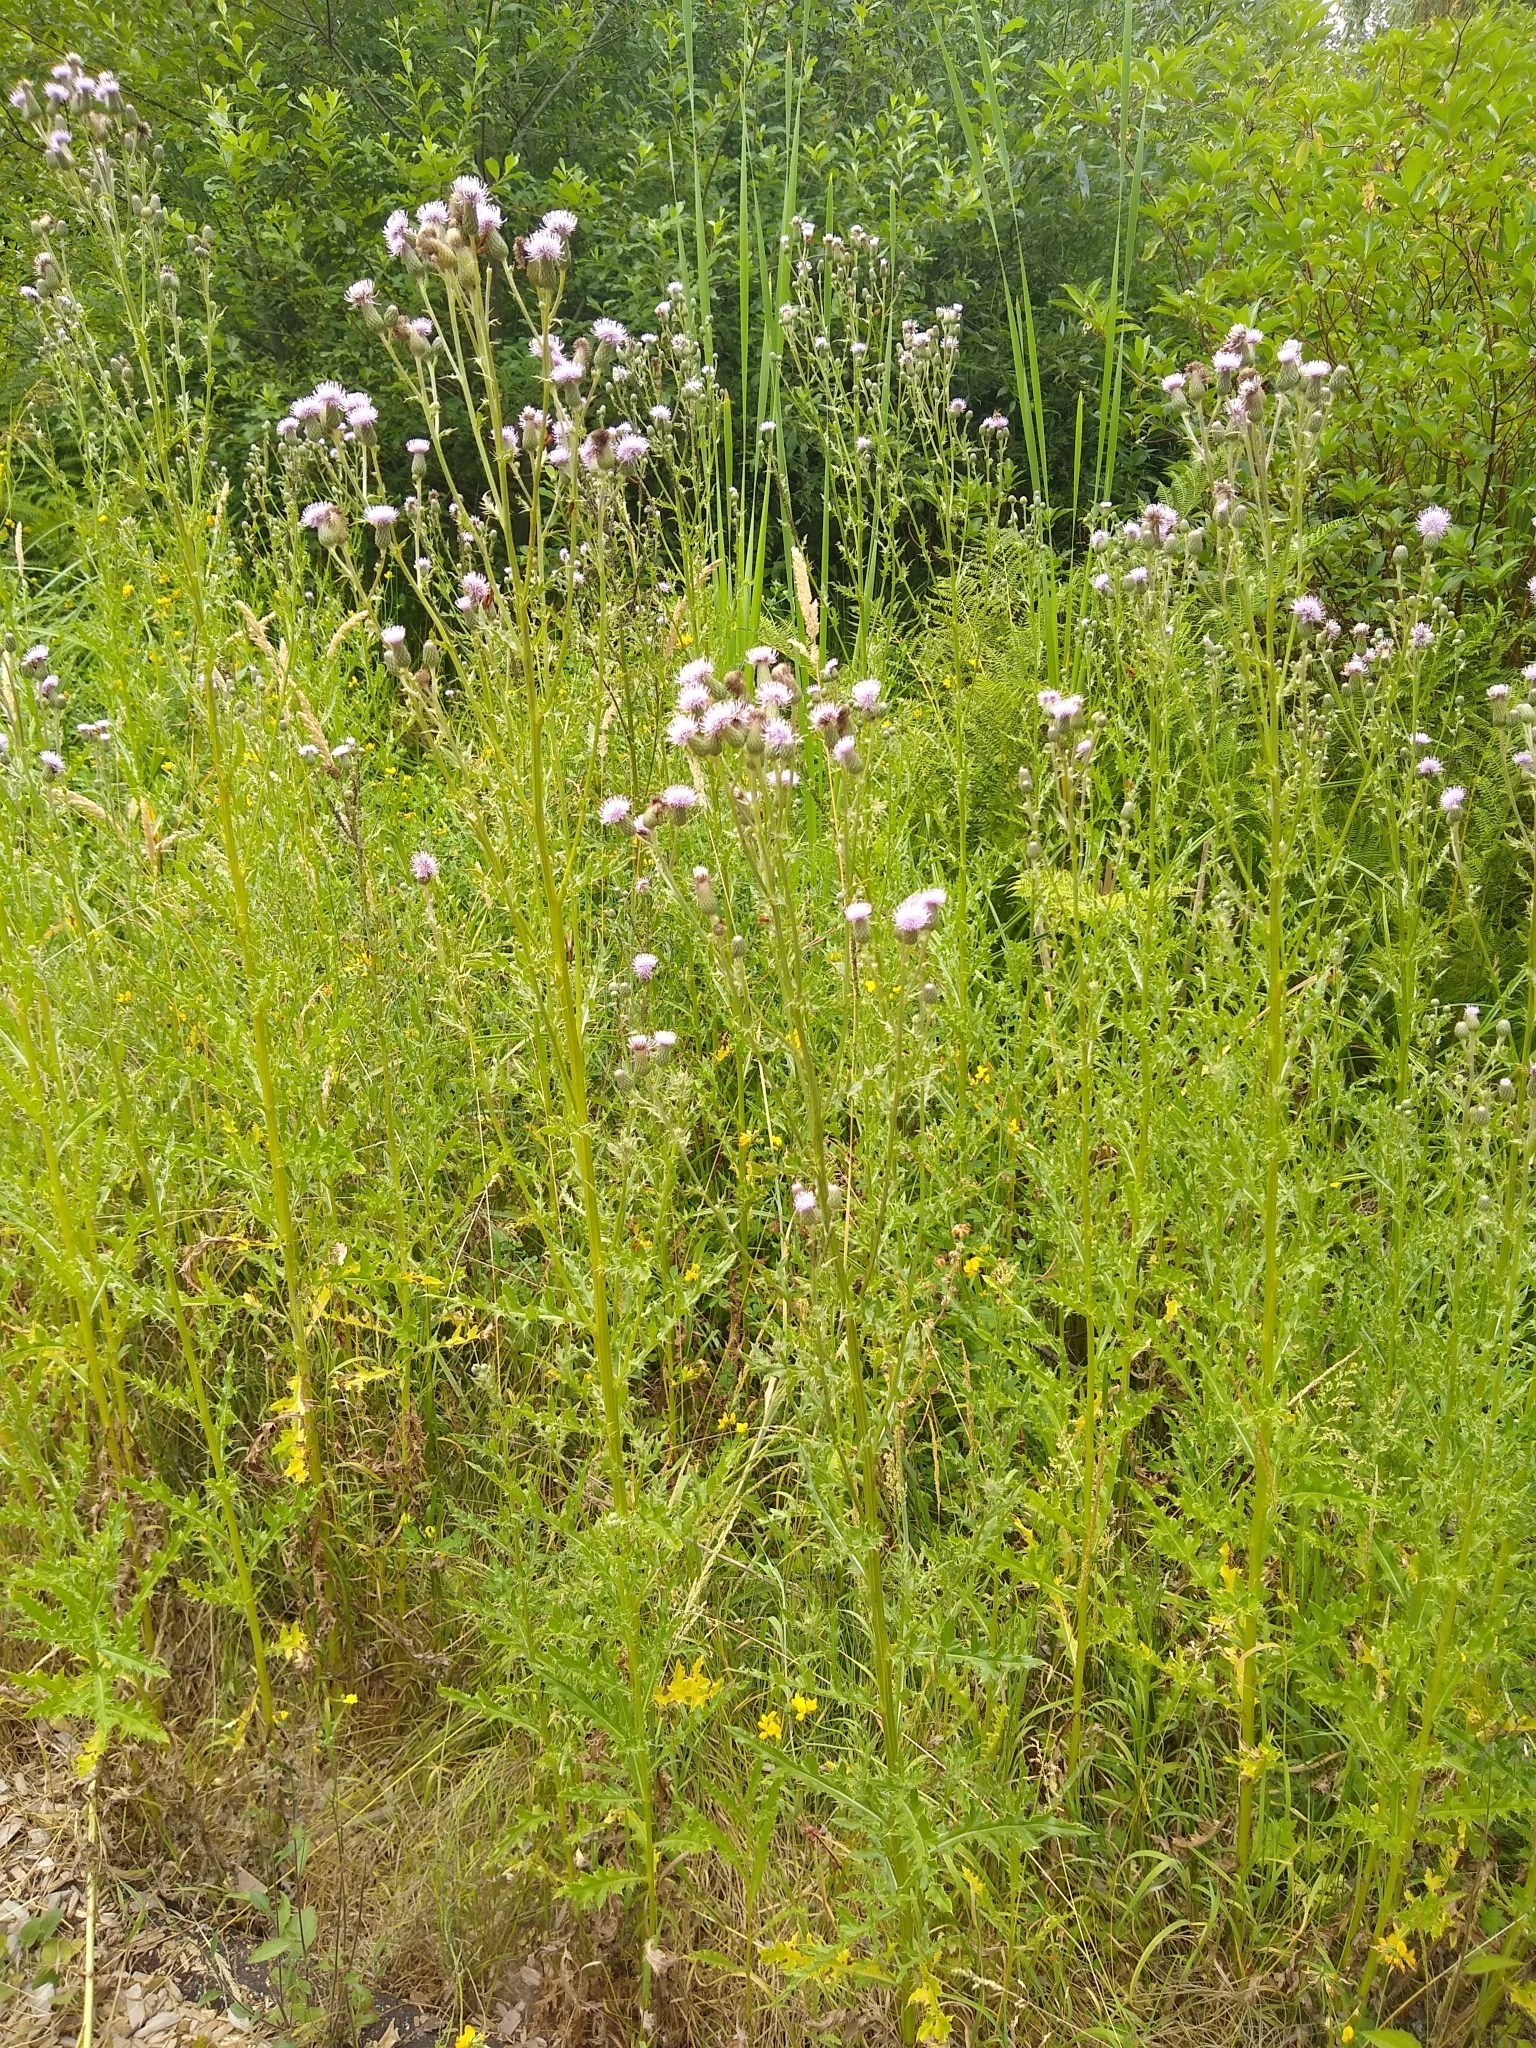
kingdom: Plantae
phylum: Tracheophyta
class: Magnoliopsida
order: Asterales
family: Asteraceae
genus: Cirsium
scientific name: Cirsium arvense
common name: Creeping thistle
